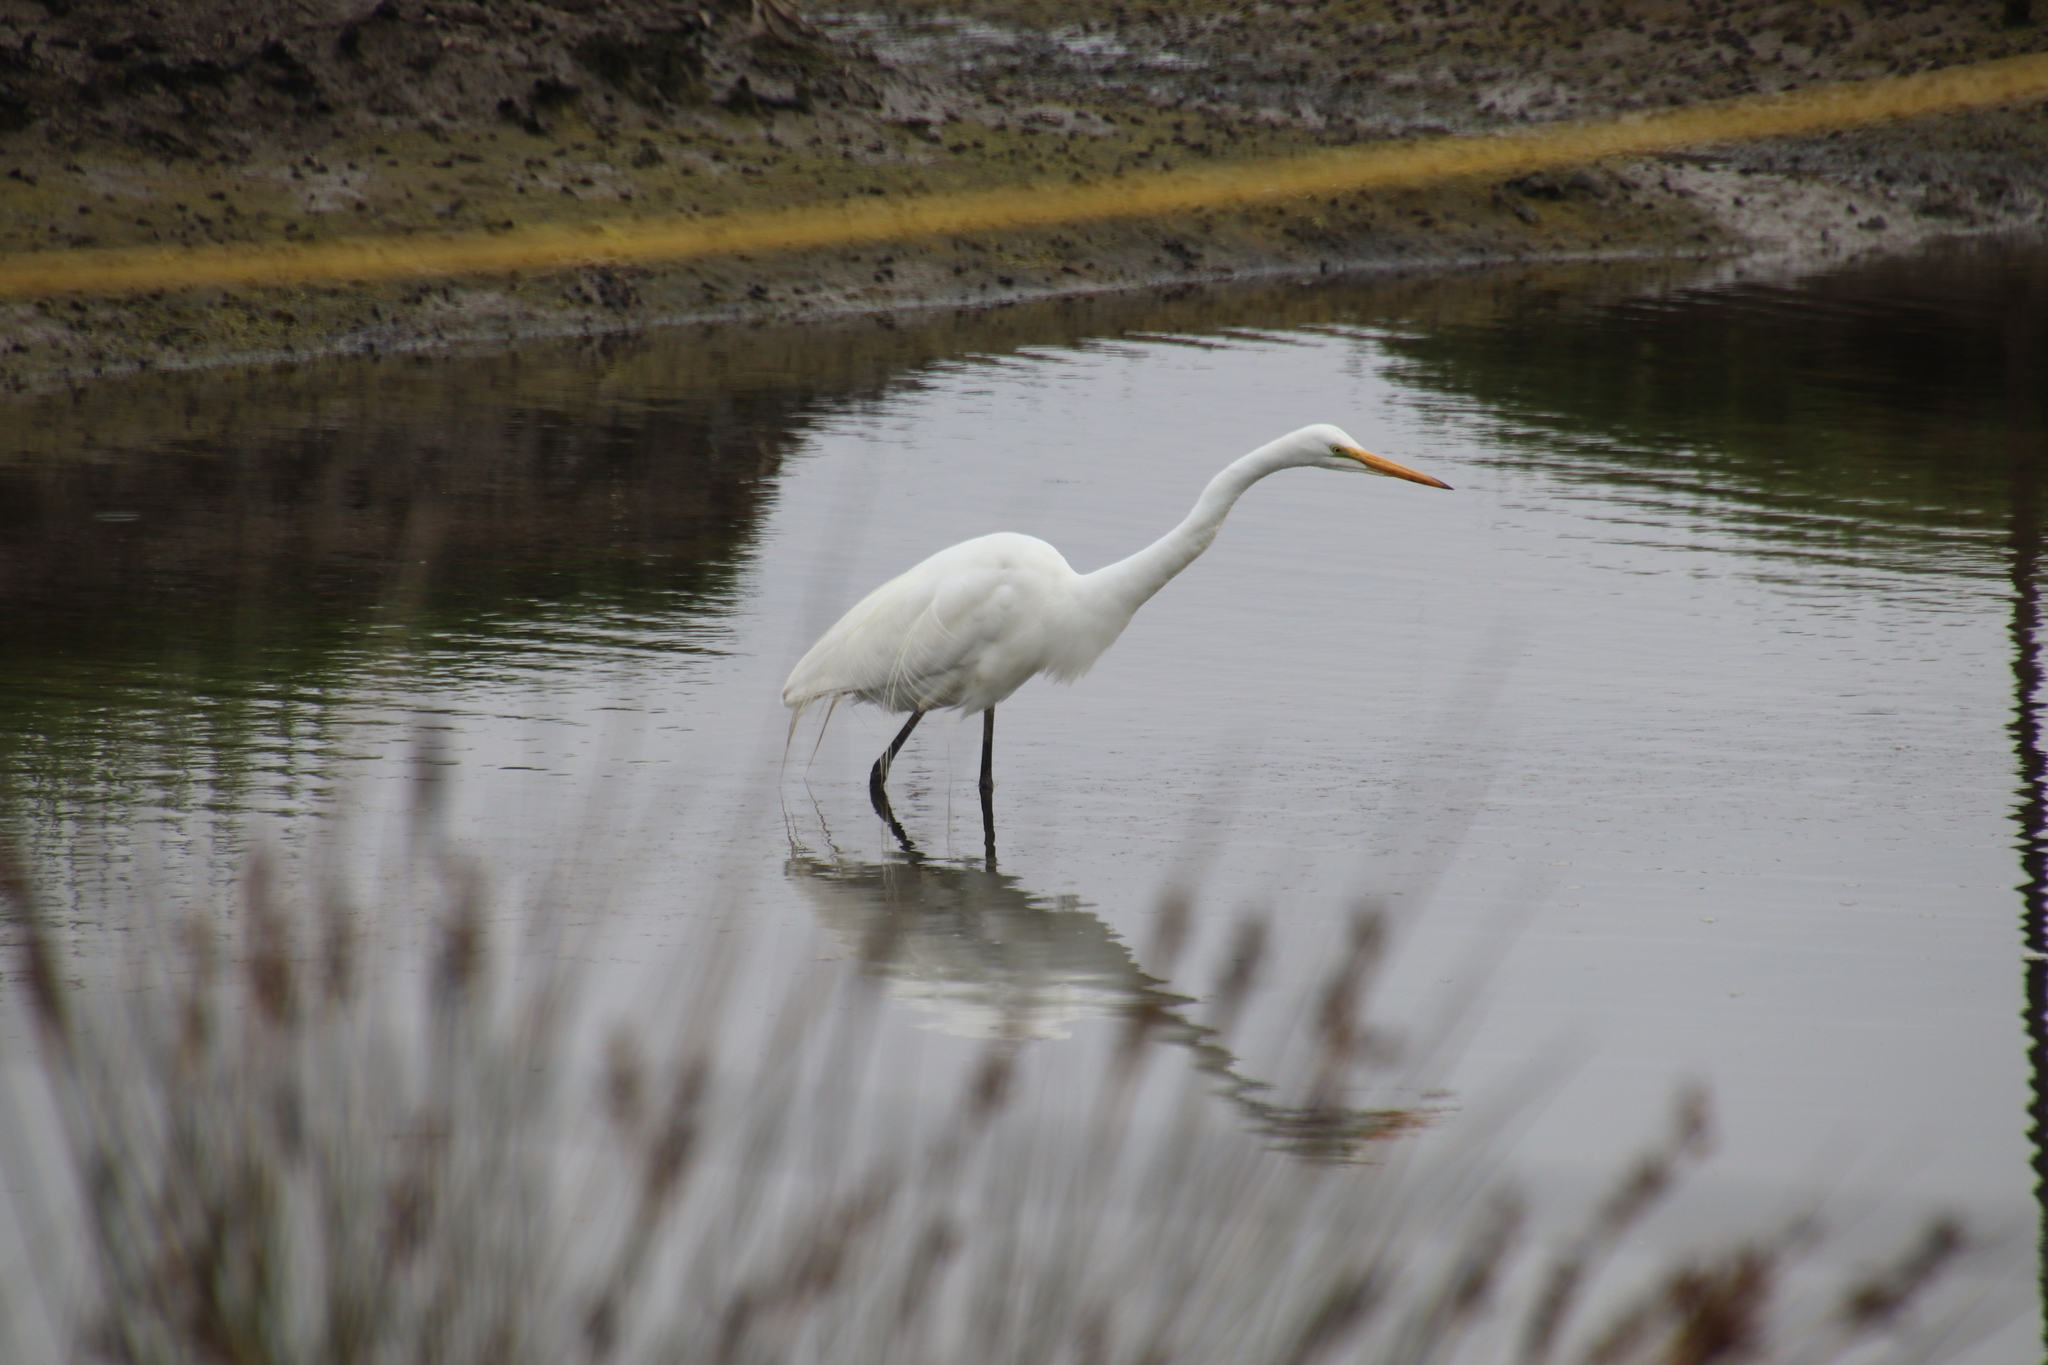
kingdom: Animalia
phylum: Chordata
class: Aves
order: Pelecaniformes
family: Ardeidae
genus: Ardea
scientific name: Ardea alba
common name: Great egret
